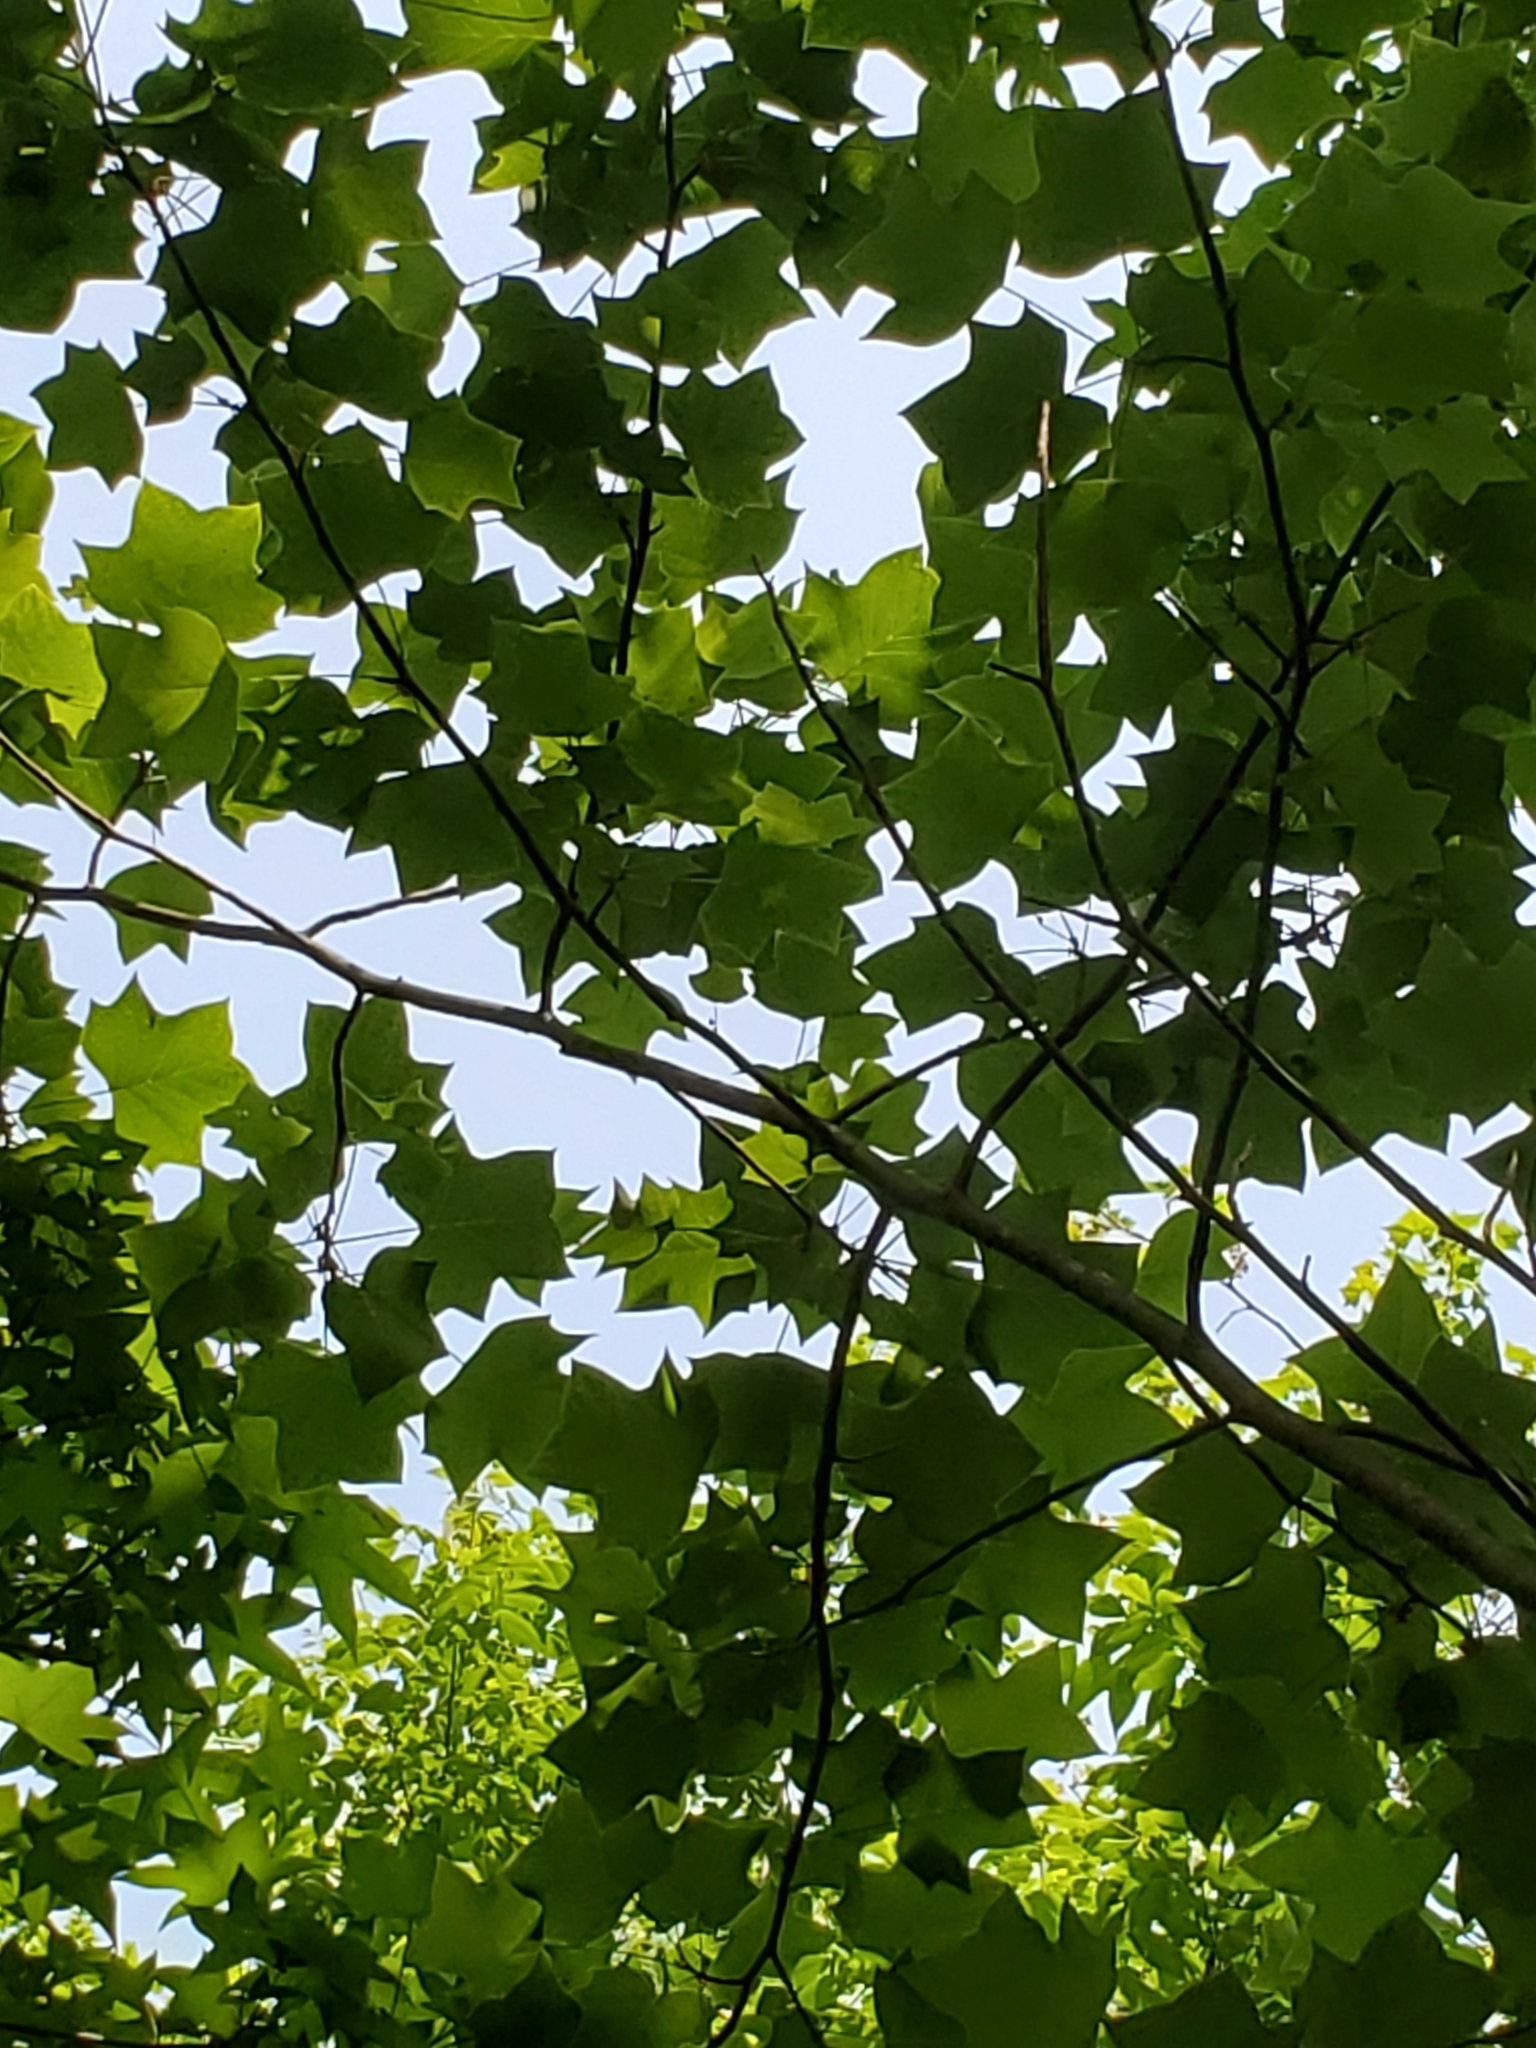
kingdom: Plantae
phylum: Tracheophyta
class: Magnoliopsida
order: Magnoliales
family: Magnoliaceae
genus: Liriodendron
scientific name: Liriodendron tulipifera
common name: Tulip tree
